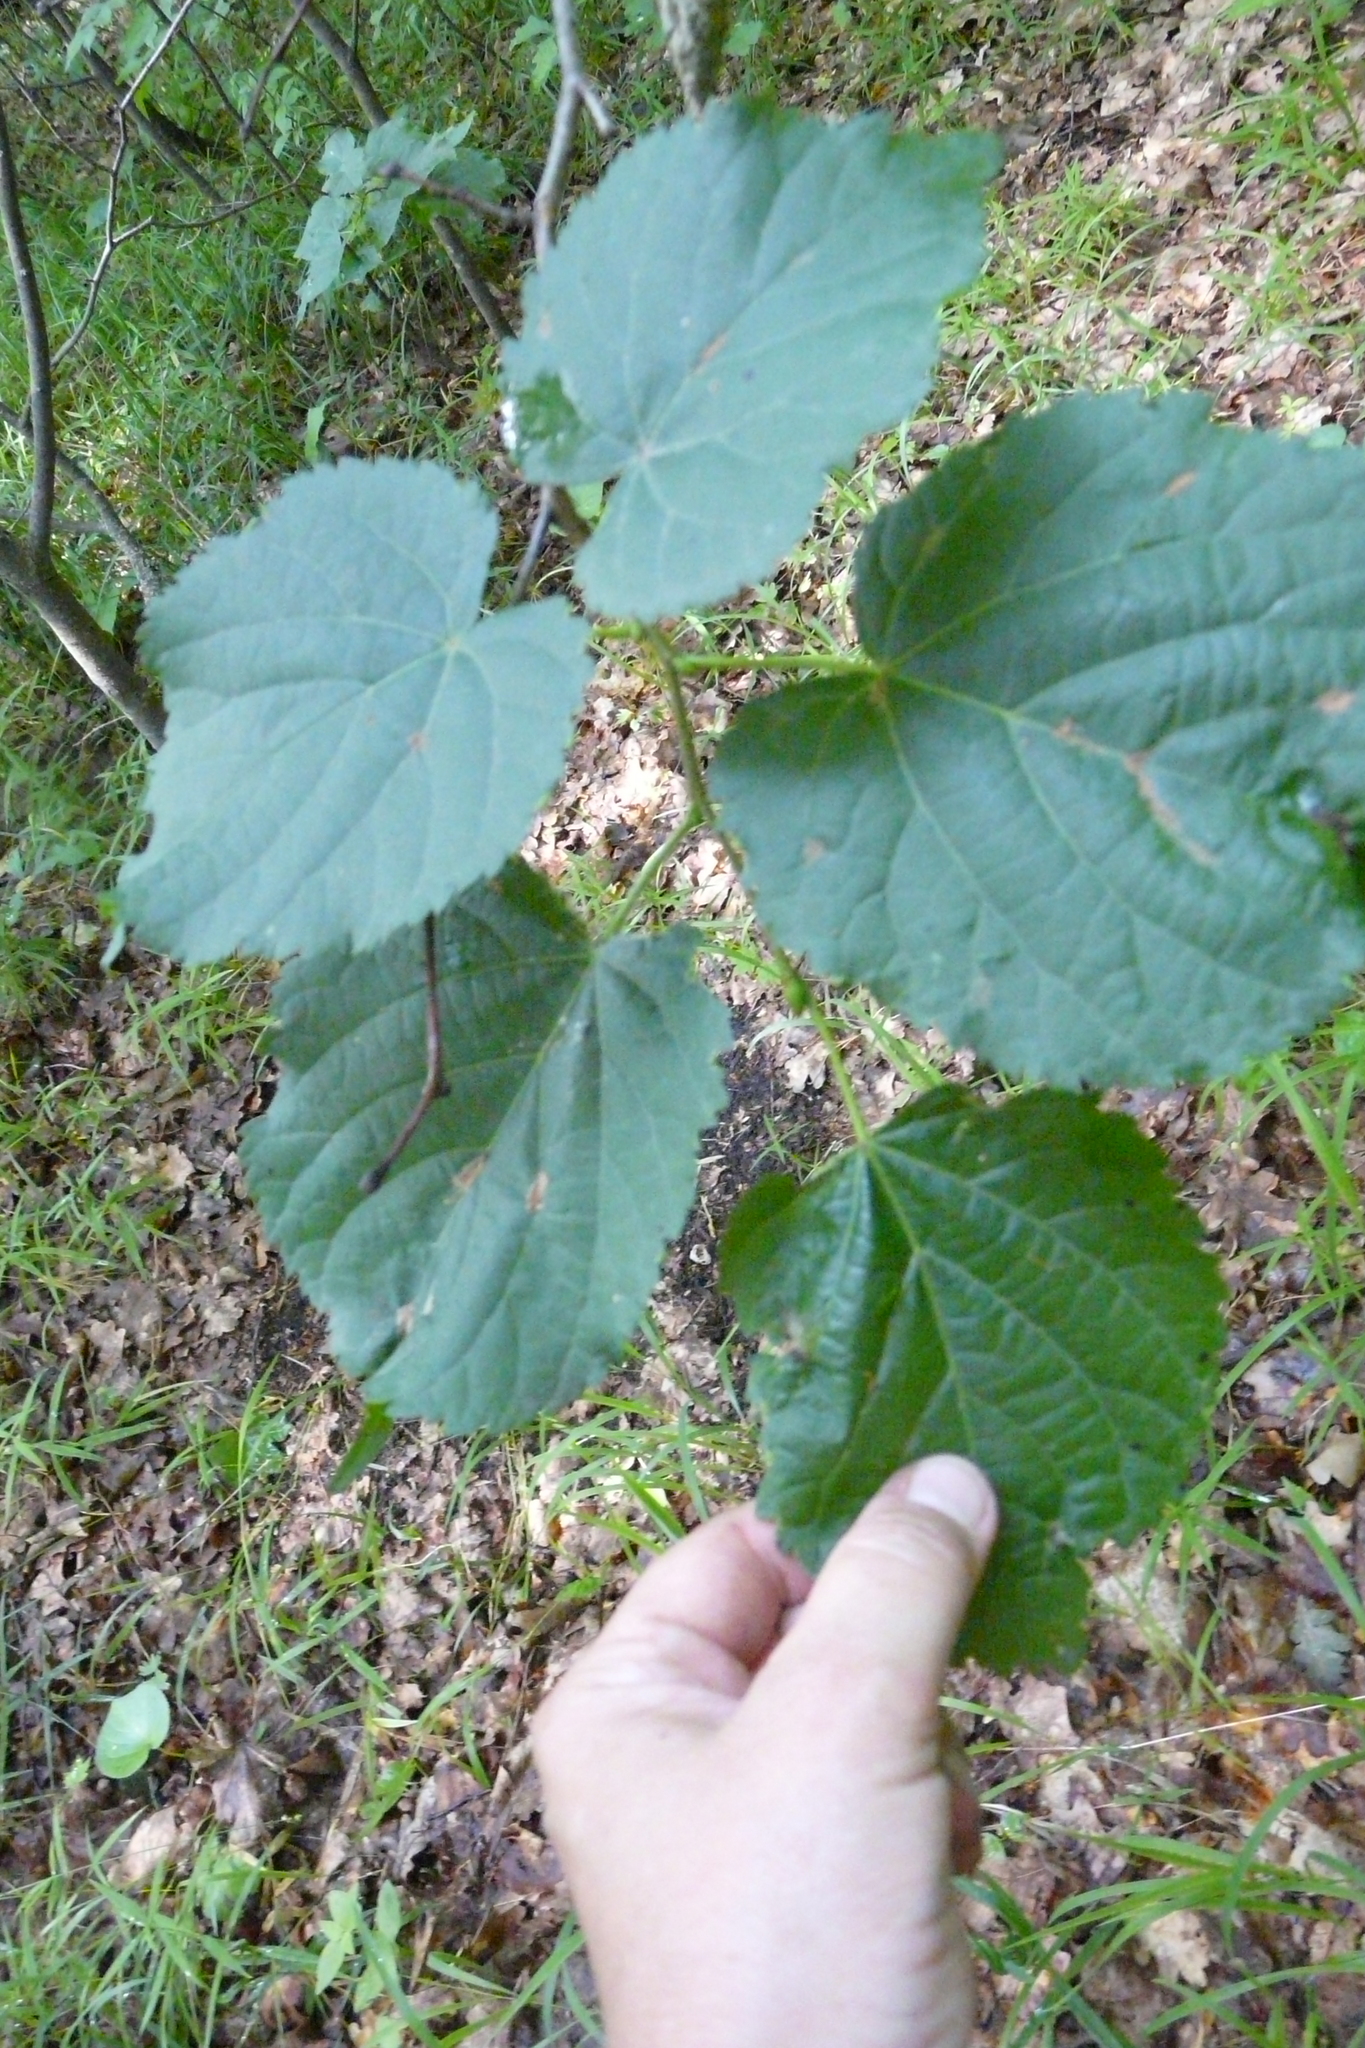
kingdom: Plantae
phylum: Tracheophyta
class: Magnoliopsida
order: Malvales
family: Malvaceae
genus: Tilia
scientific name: Tilia cordata
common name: Small-leaved lime
